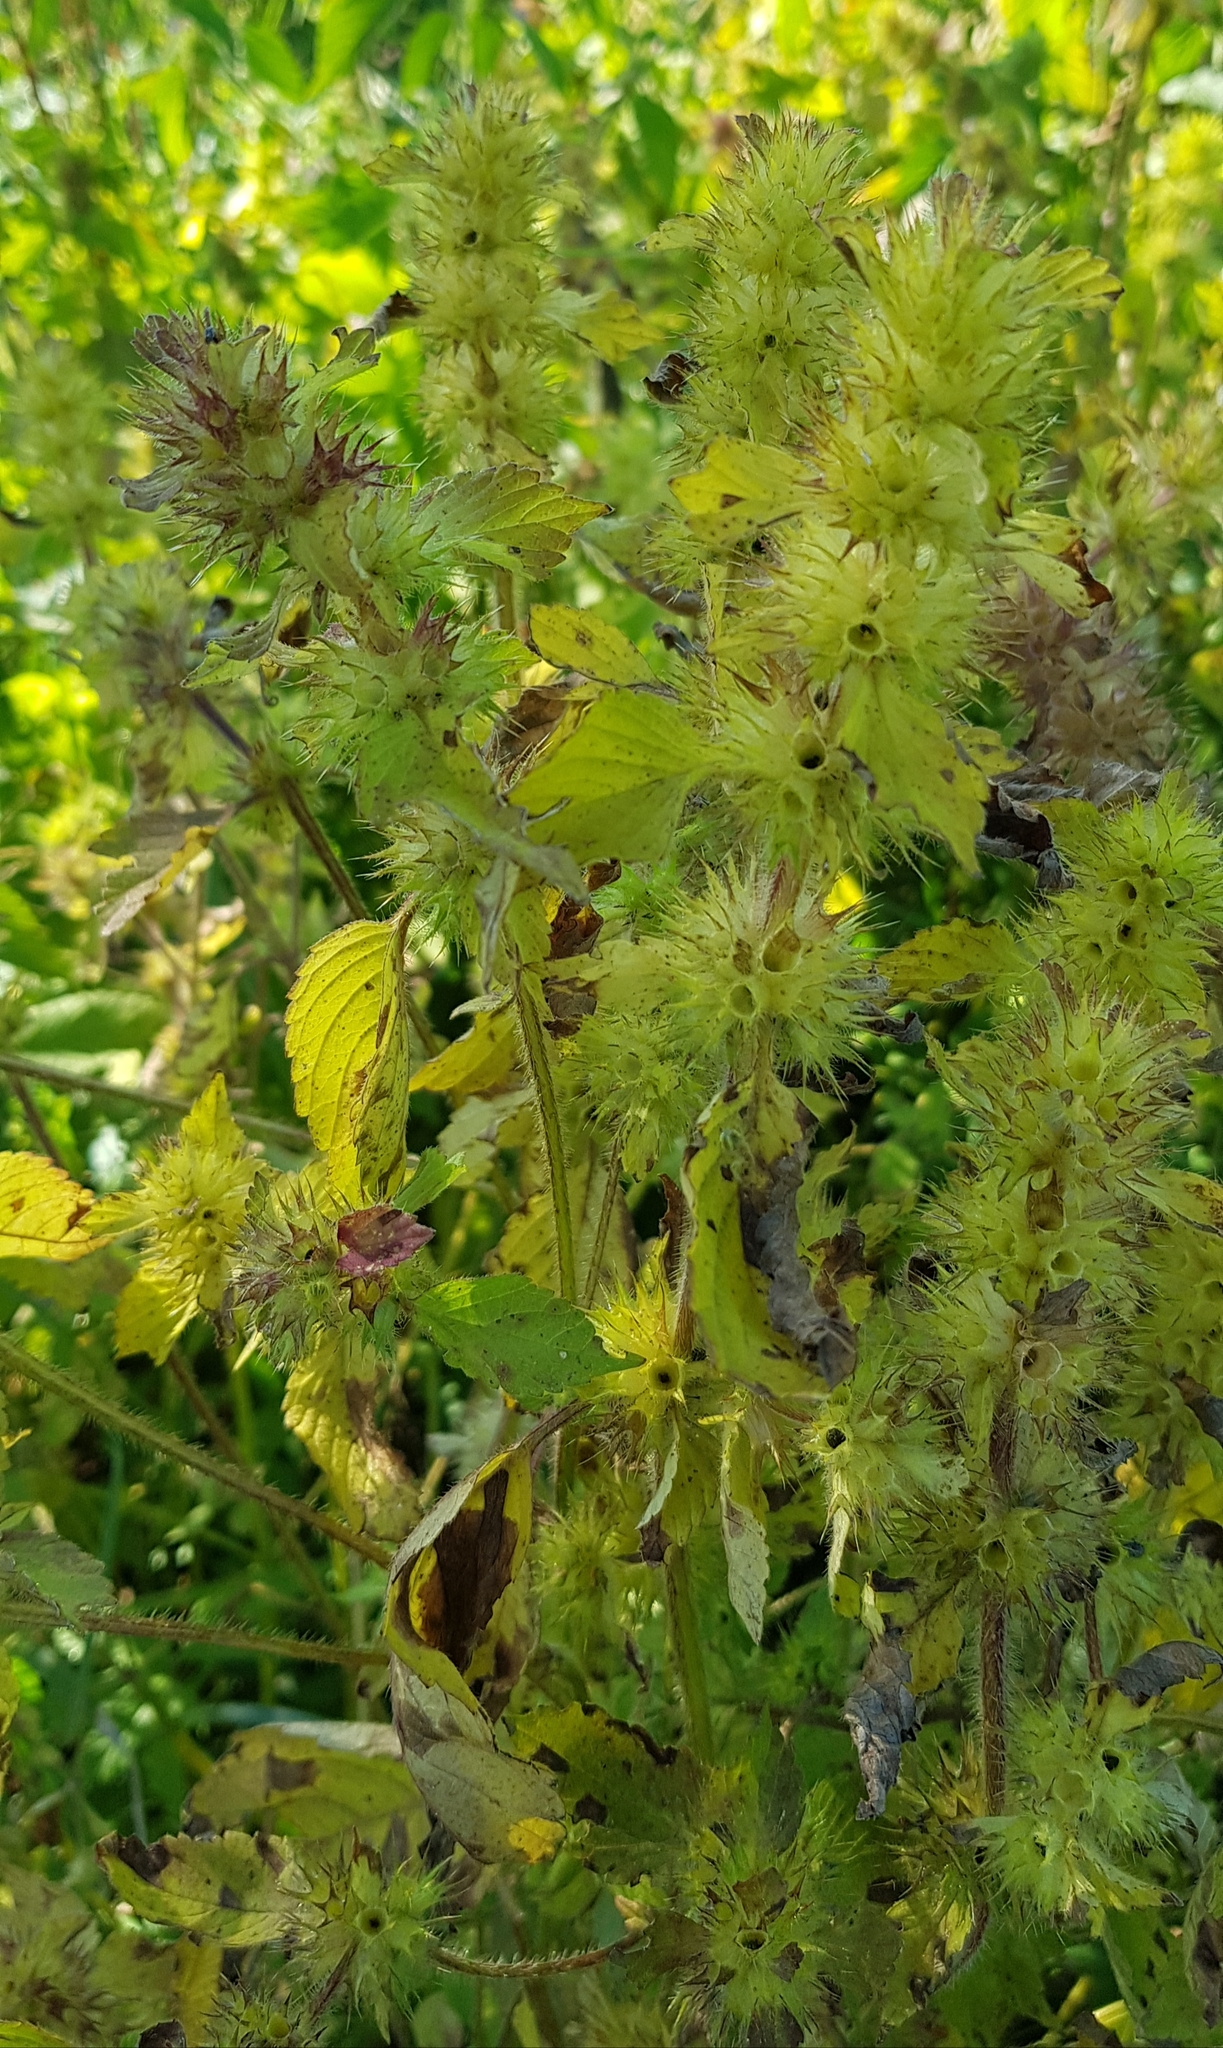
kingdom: Plantae
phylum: Tracheophyta
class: Magnoliopsida
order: Lamiales
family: Lamiaceae
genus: Galeopsis
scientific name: Galeopsis bifida
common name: Bifid hemp-nettle
